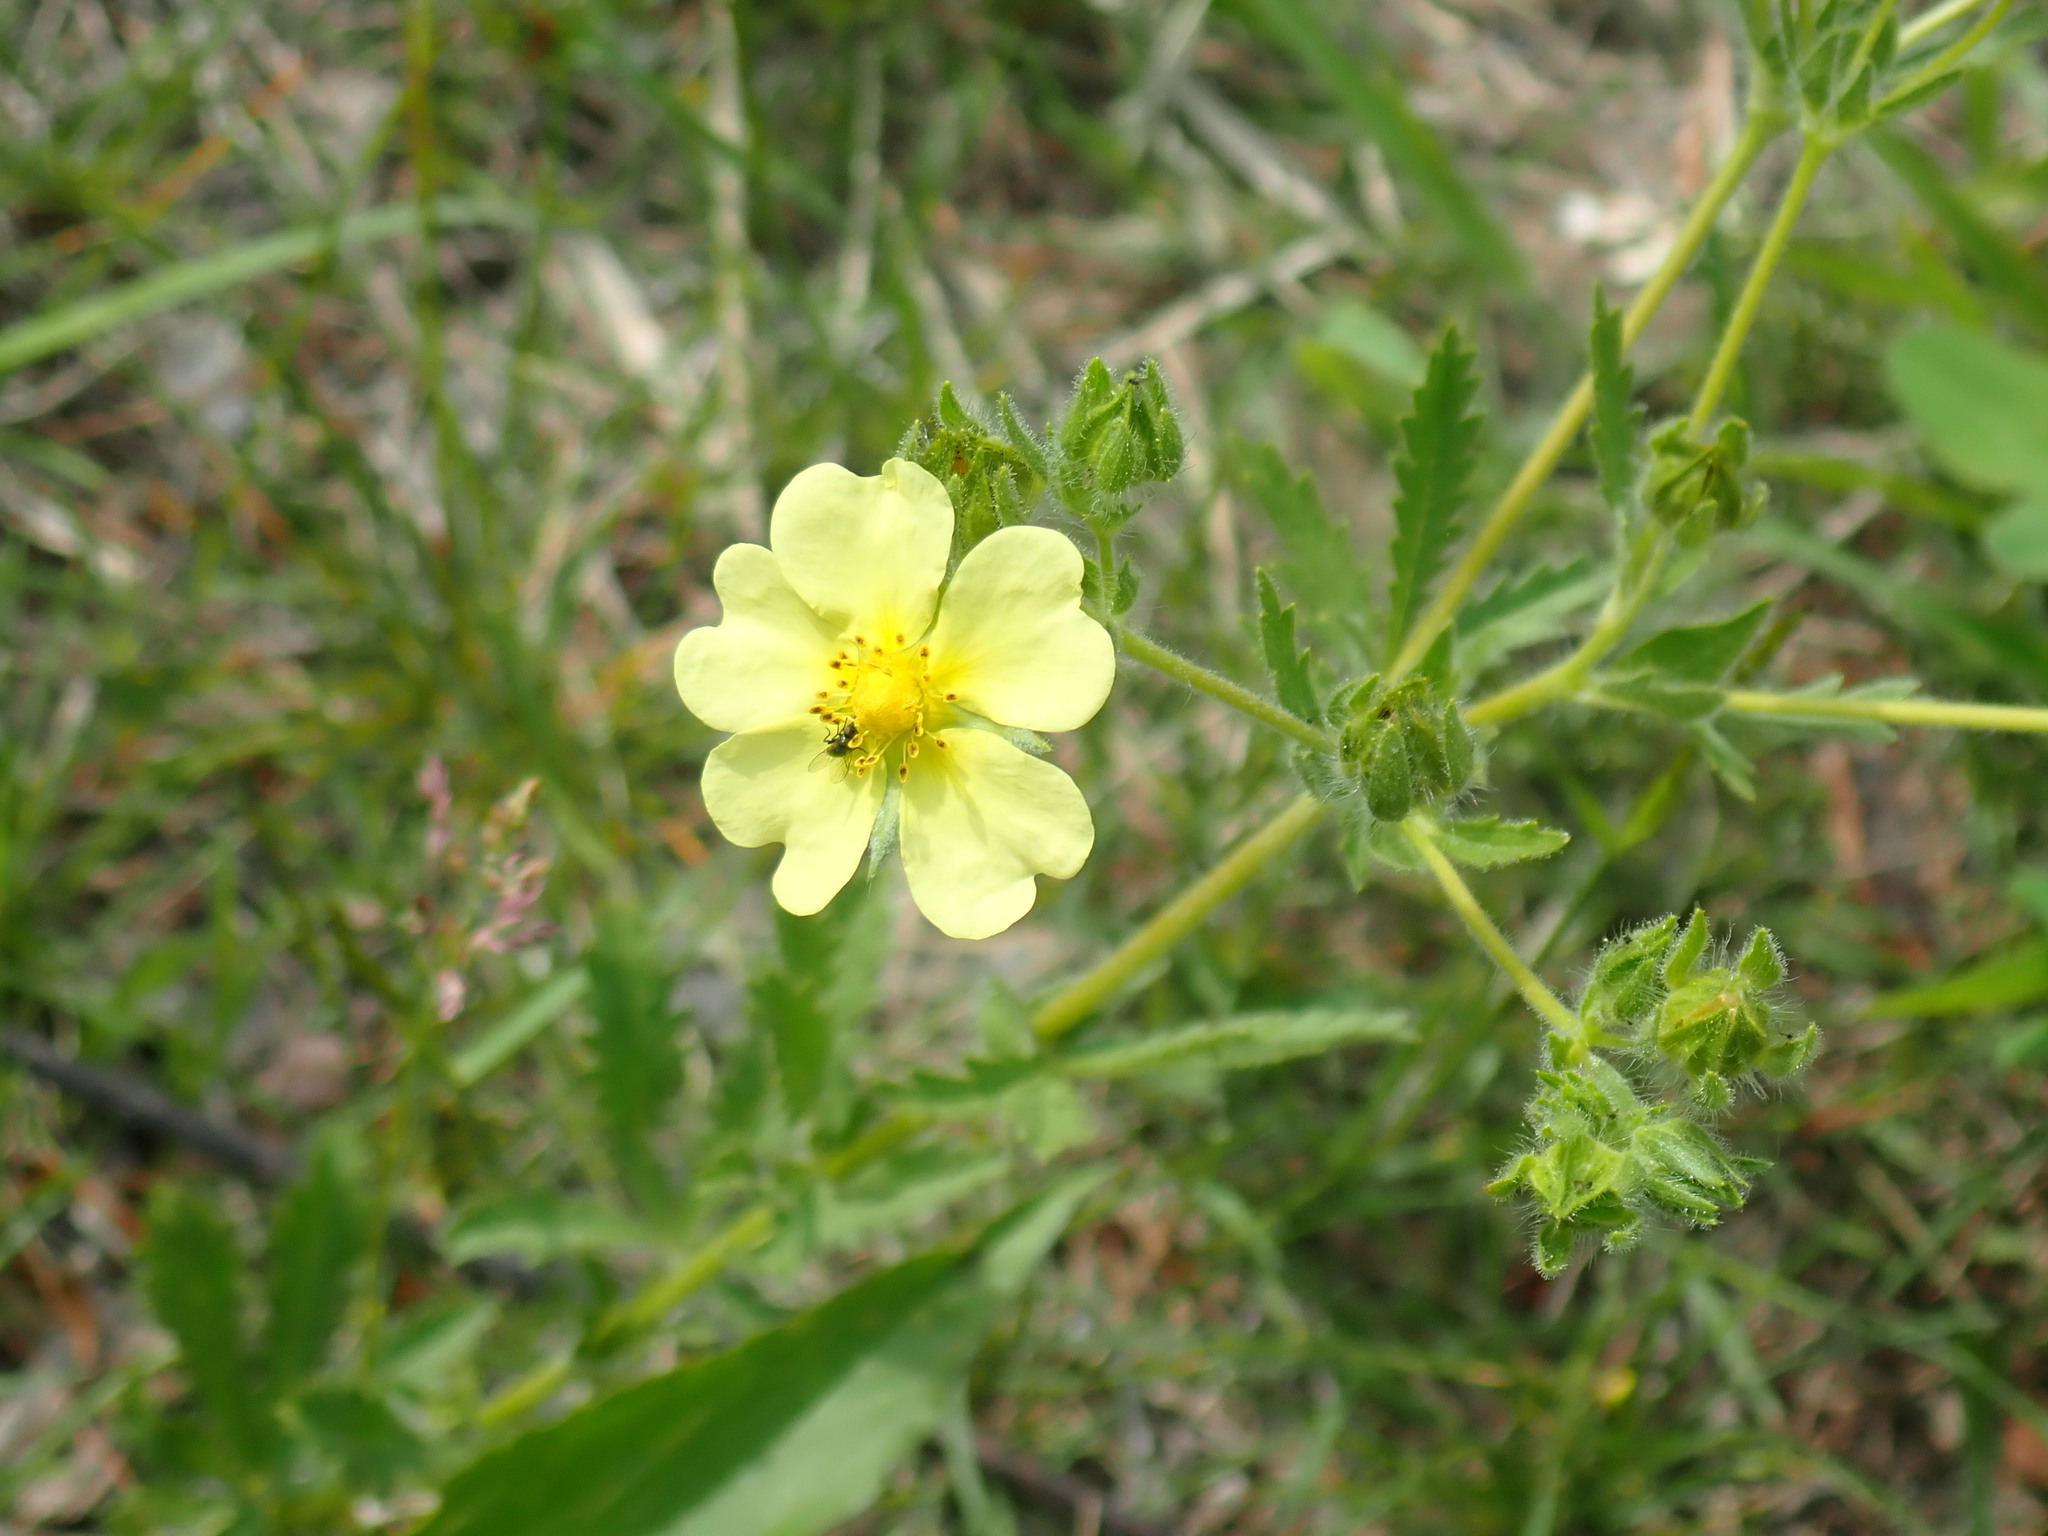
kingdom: Plantae
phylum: Tracheophyta
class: Magnoliopsida
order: Rosales
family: Rosaceae
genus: Potentilla
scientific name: Potentilla recta
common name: Sulphur cinquefoil
